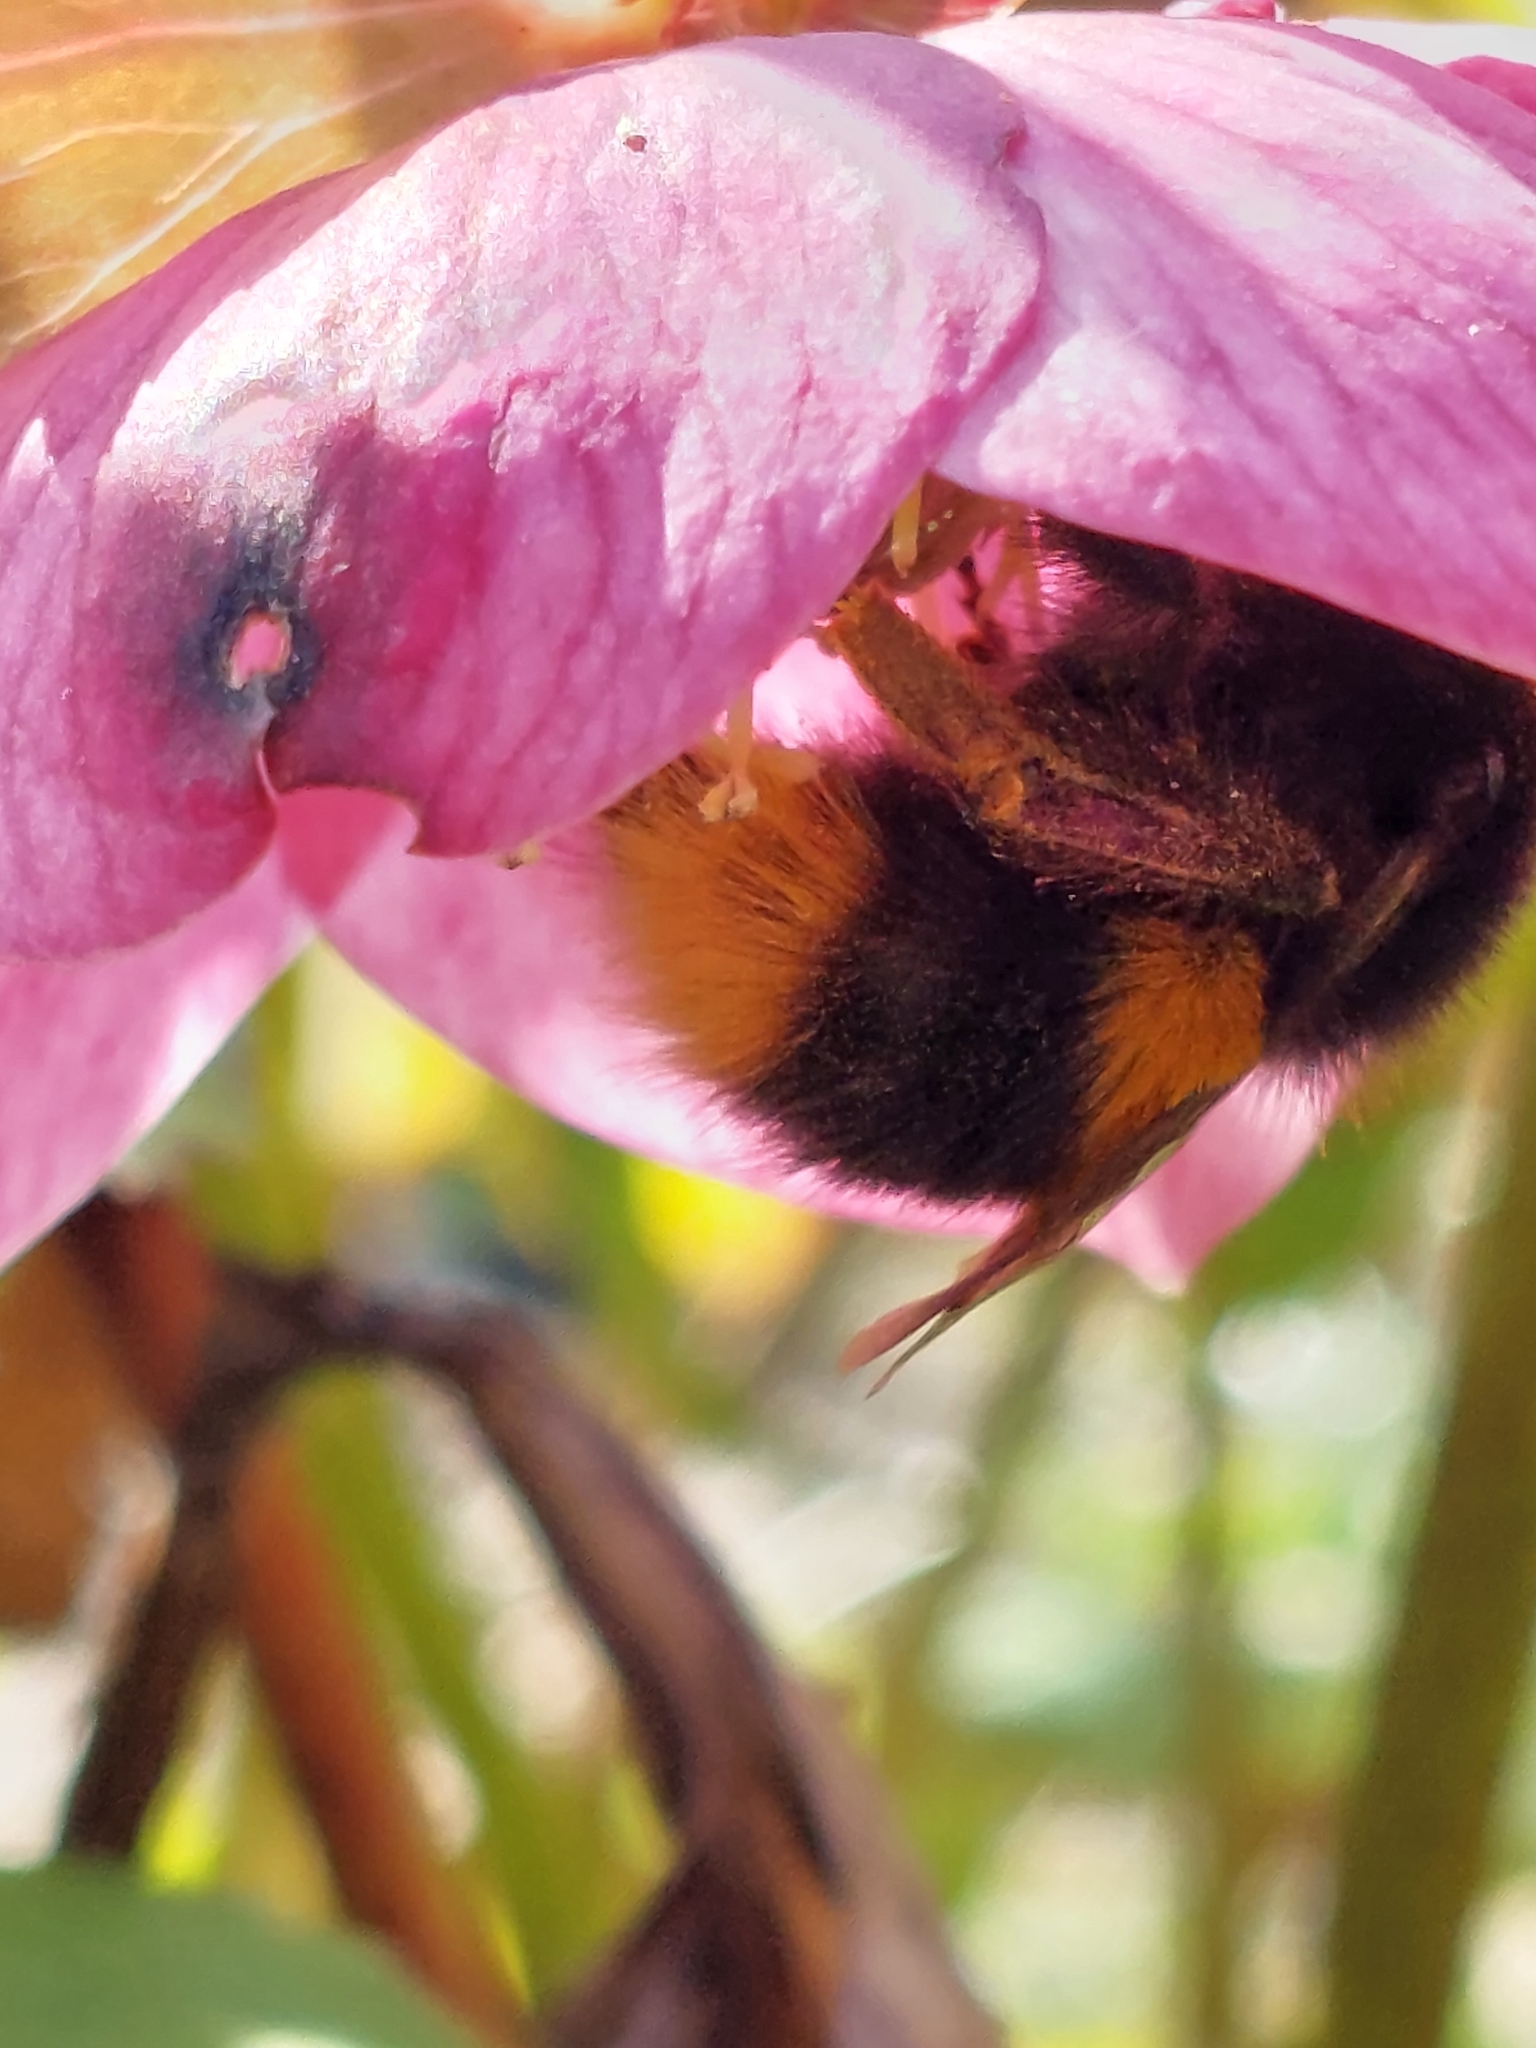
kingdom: Animalia
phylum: Arthropoda
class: Insecta
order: Hymenoptera
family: Apidae
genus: Bombus
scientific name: Bombus terrestris
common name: Buff-tailed bumblebee
